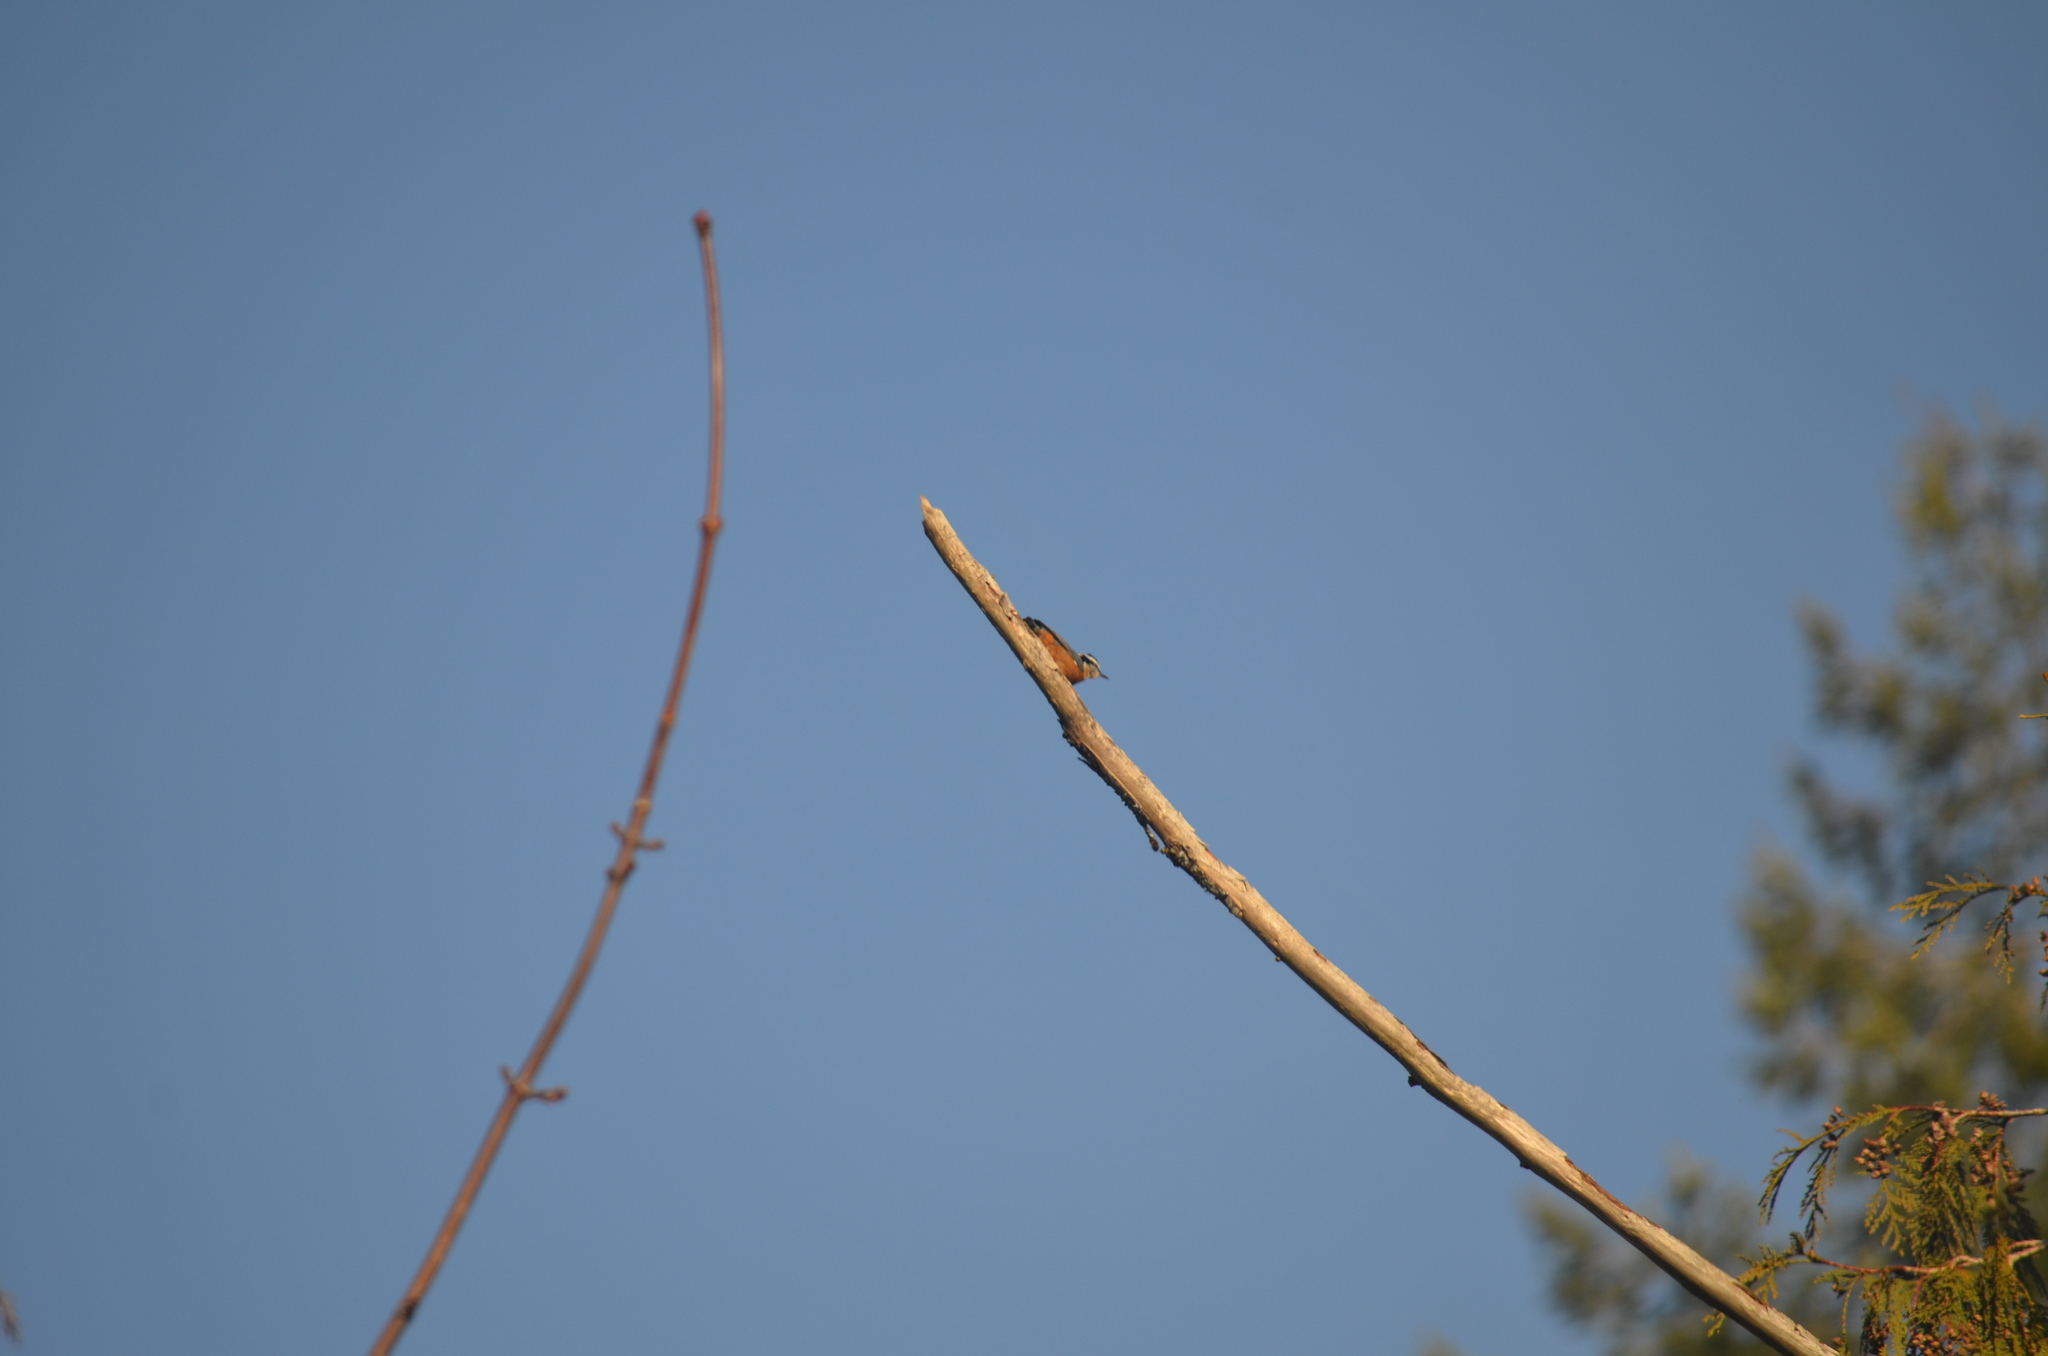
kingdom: Animalia
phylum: Chordata
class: Aves
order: Passeriformes
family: Sittidae
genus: Sitta
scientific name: Sitta canadensis
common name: Red-breasted nuthatch
